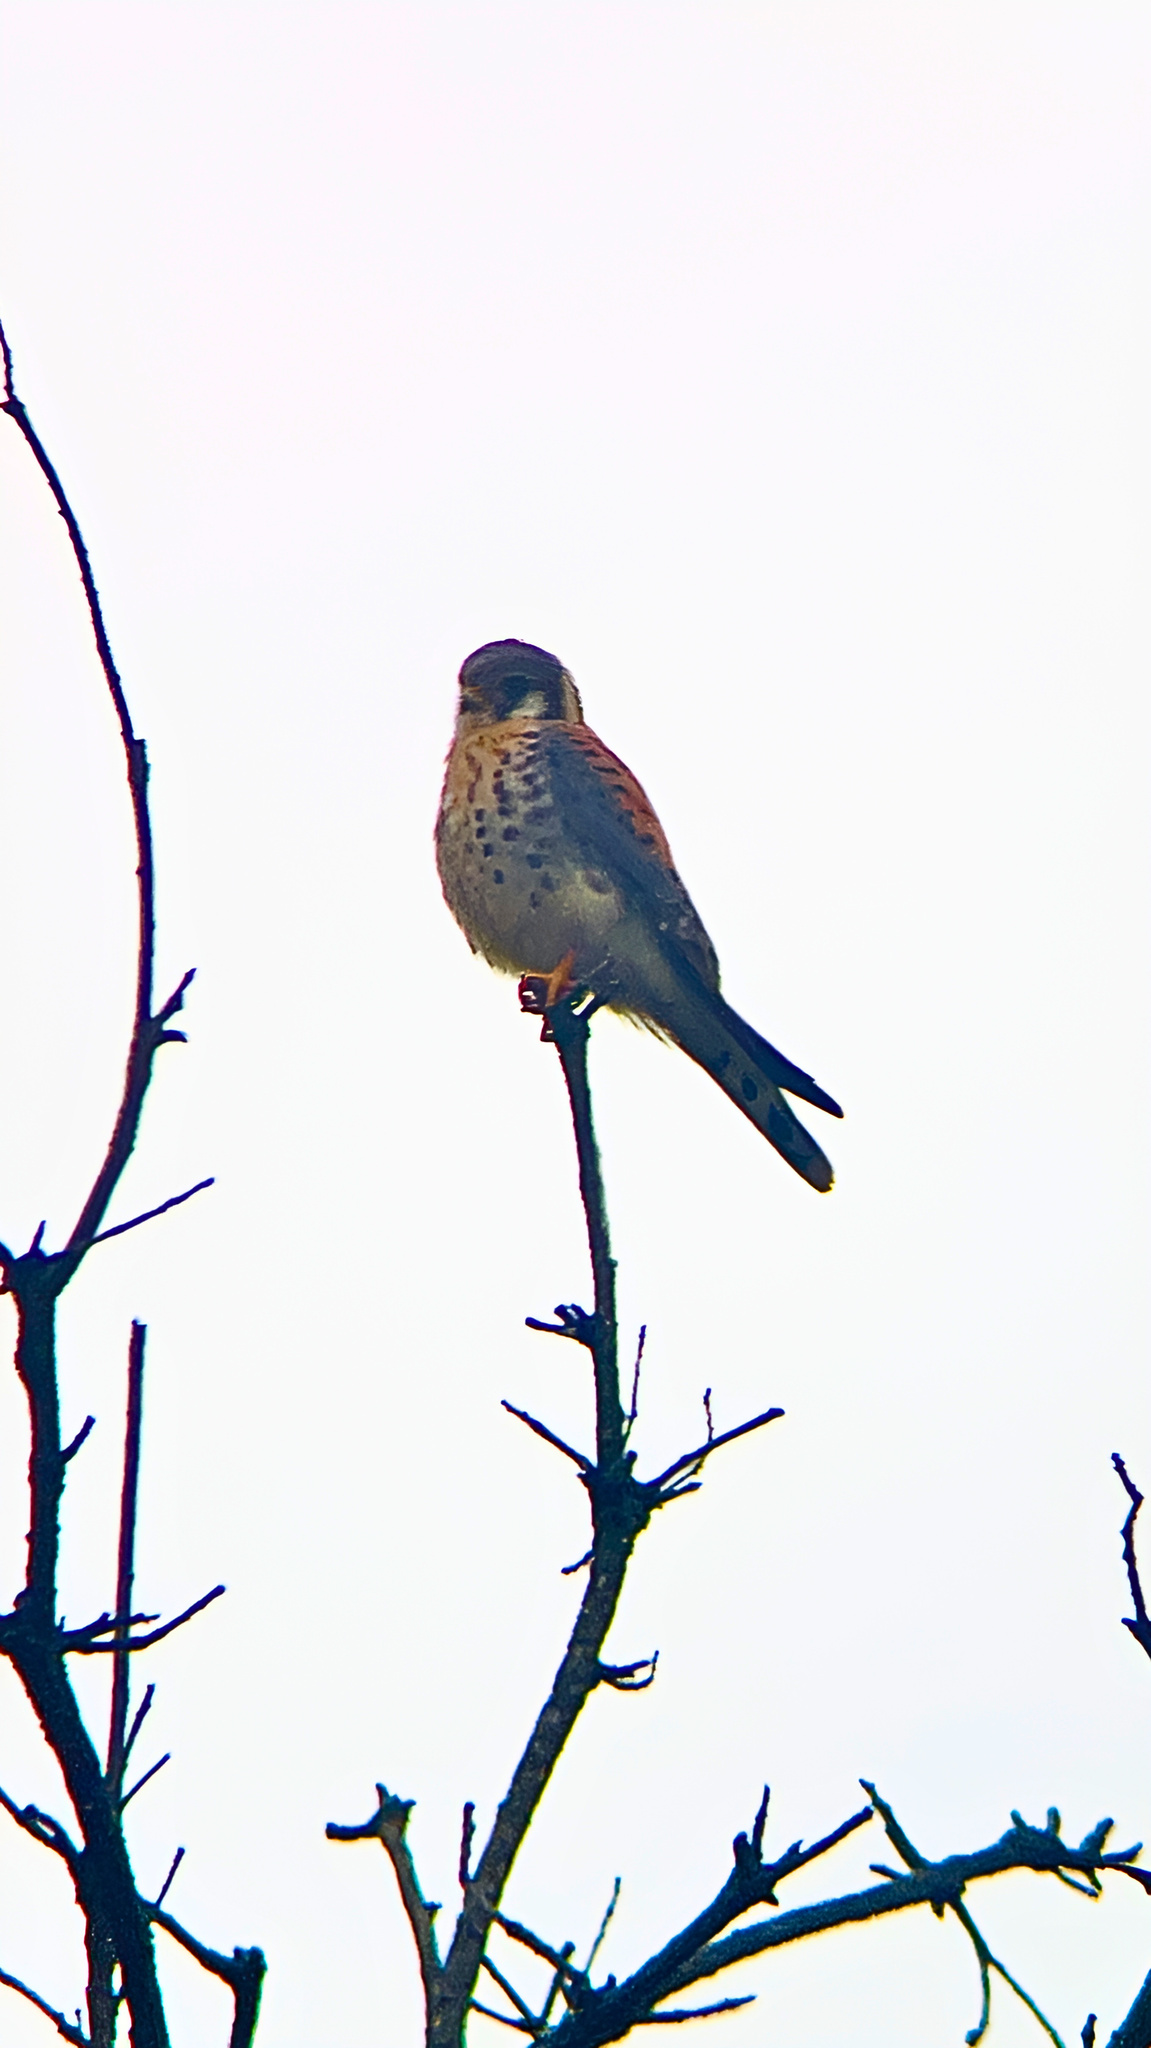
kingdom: Animalia
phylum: Chordata
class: Aves
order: Falconiformes
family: Falconidae
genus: Falco
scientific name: Falco sparverius
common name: American kestrel
